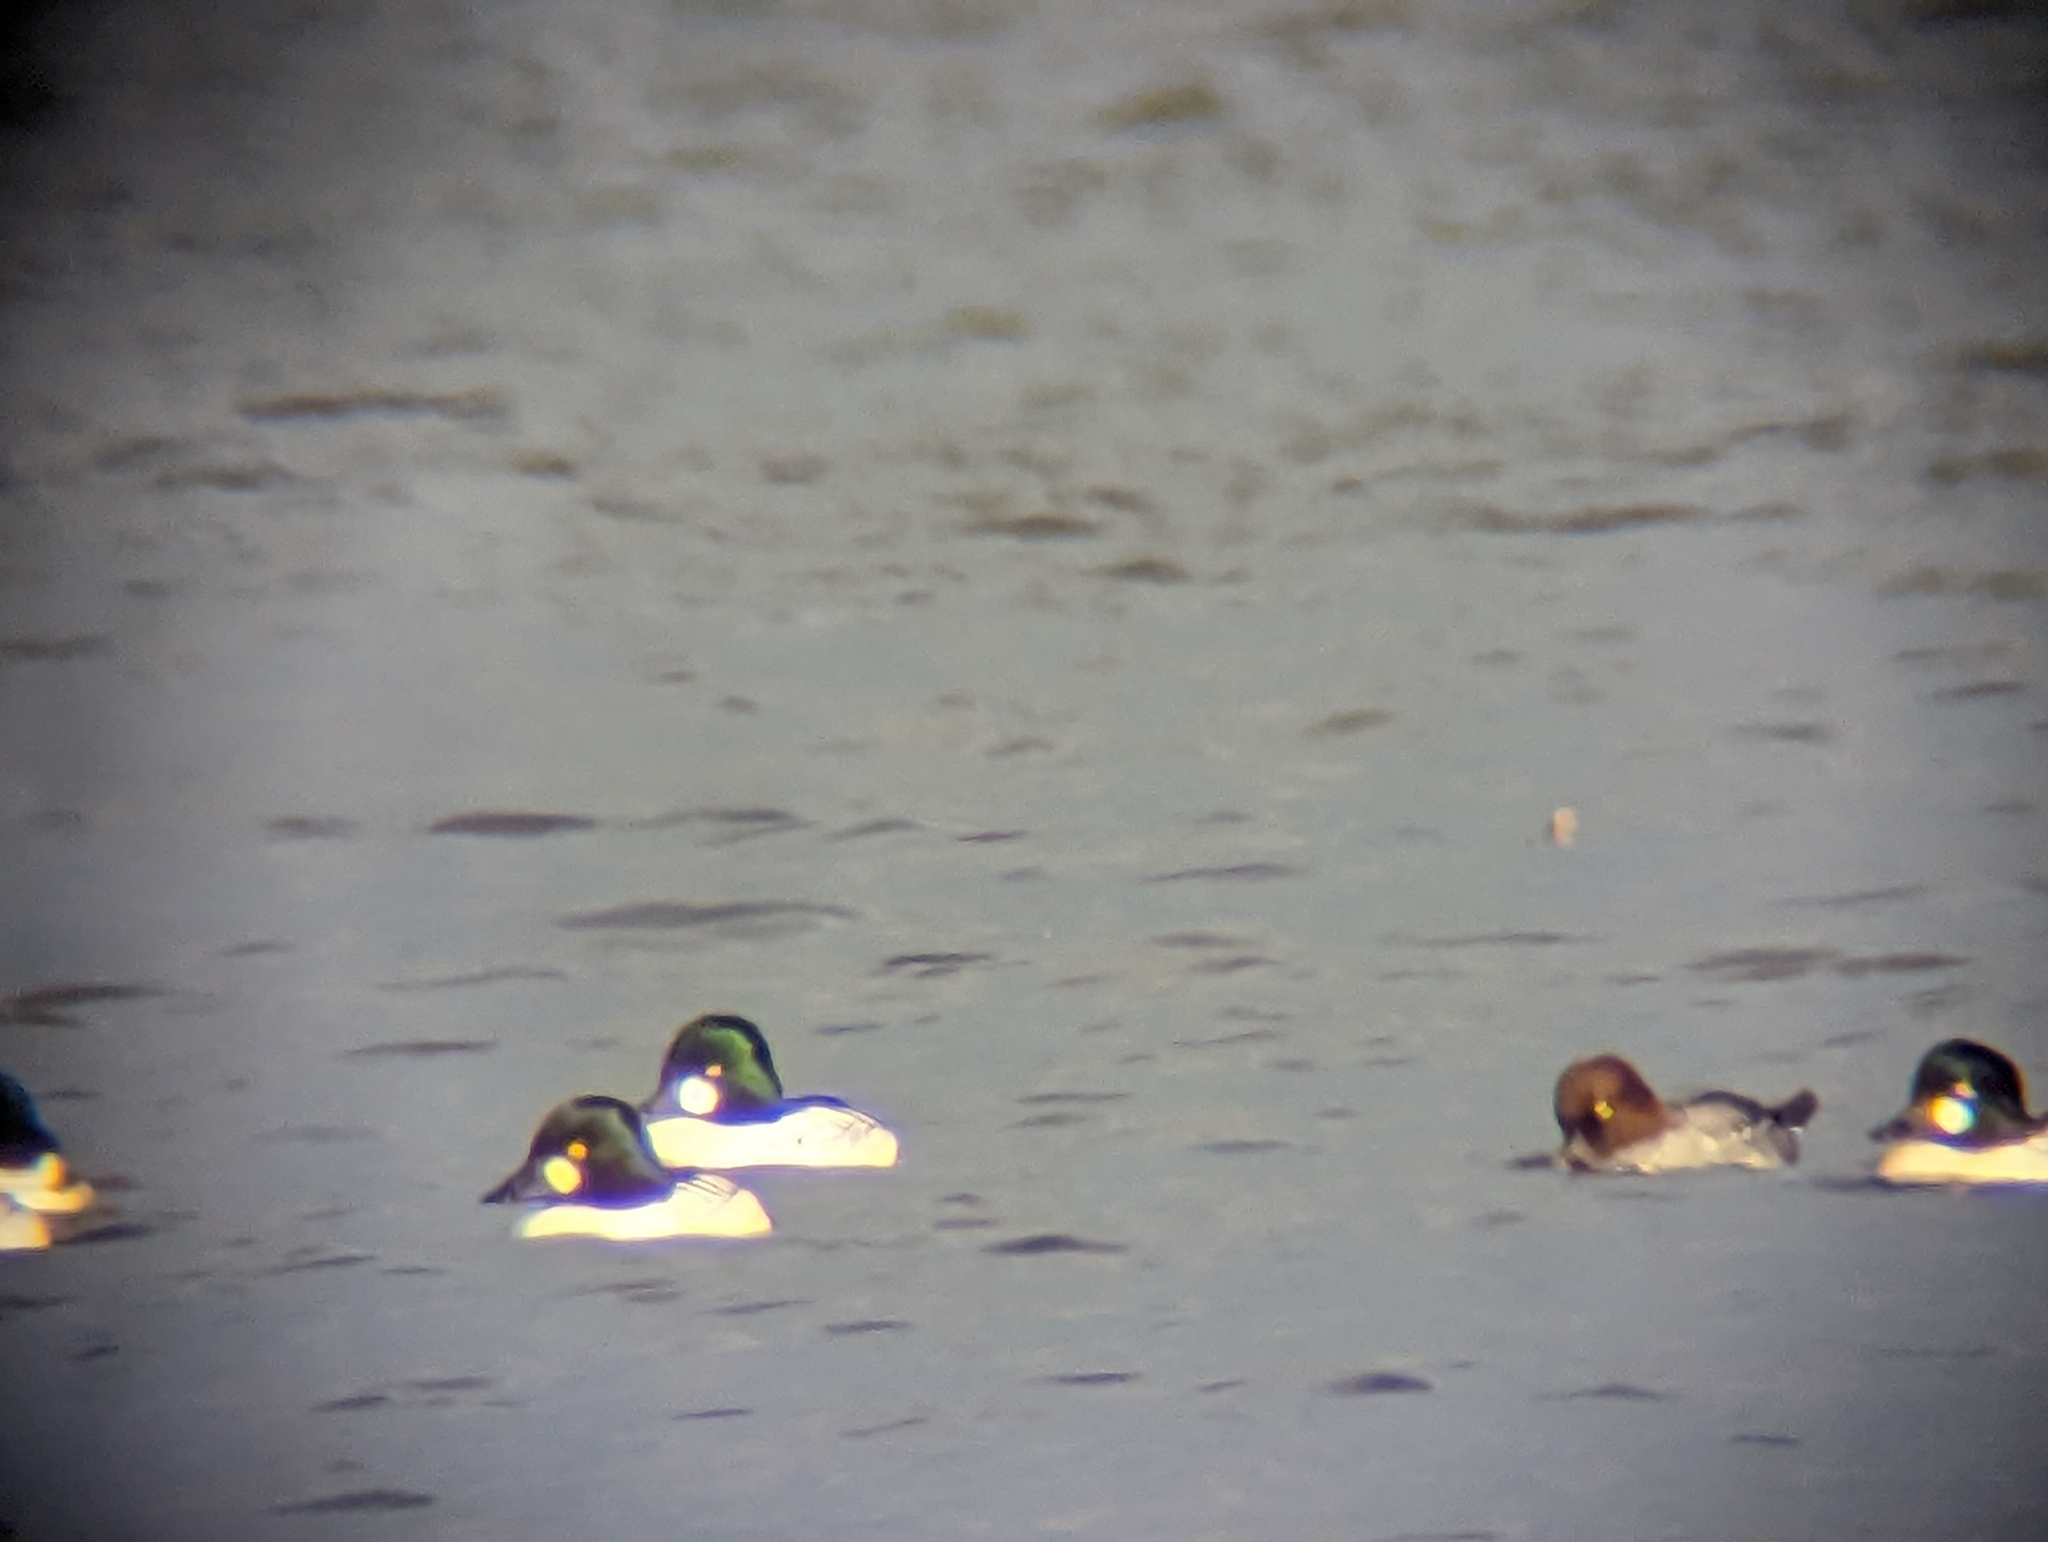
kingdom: Animalia
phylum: Chordata
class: Aves
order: Anseriformes
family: Anatidae
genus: Bucephala
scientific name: Bucephala clangula
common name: Common goldeneye
